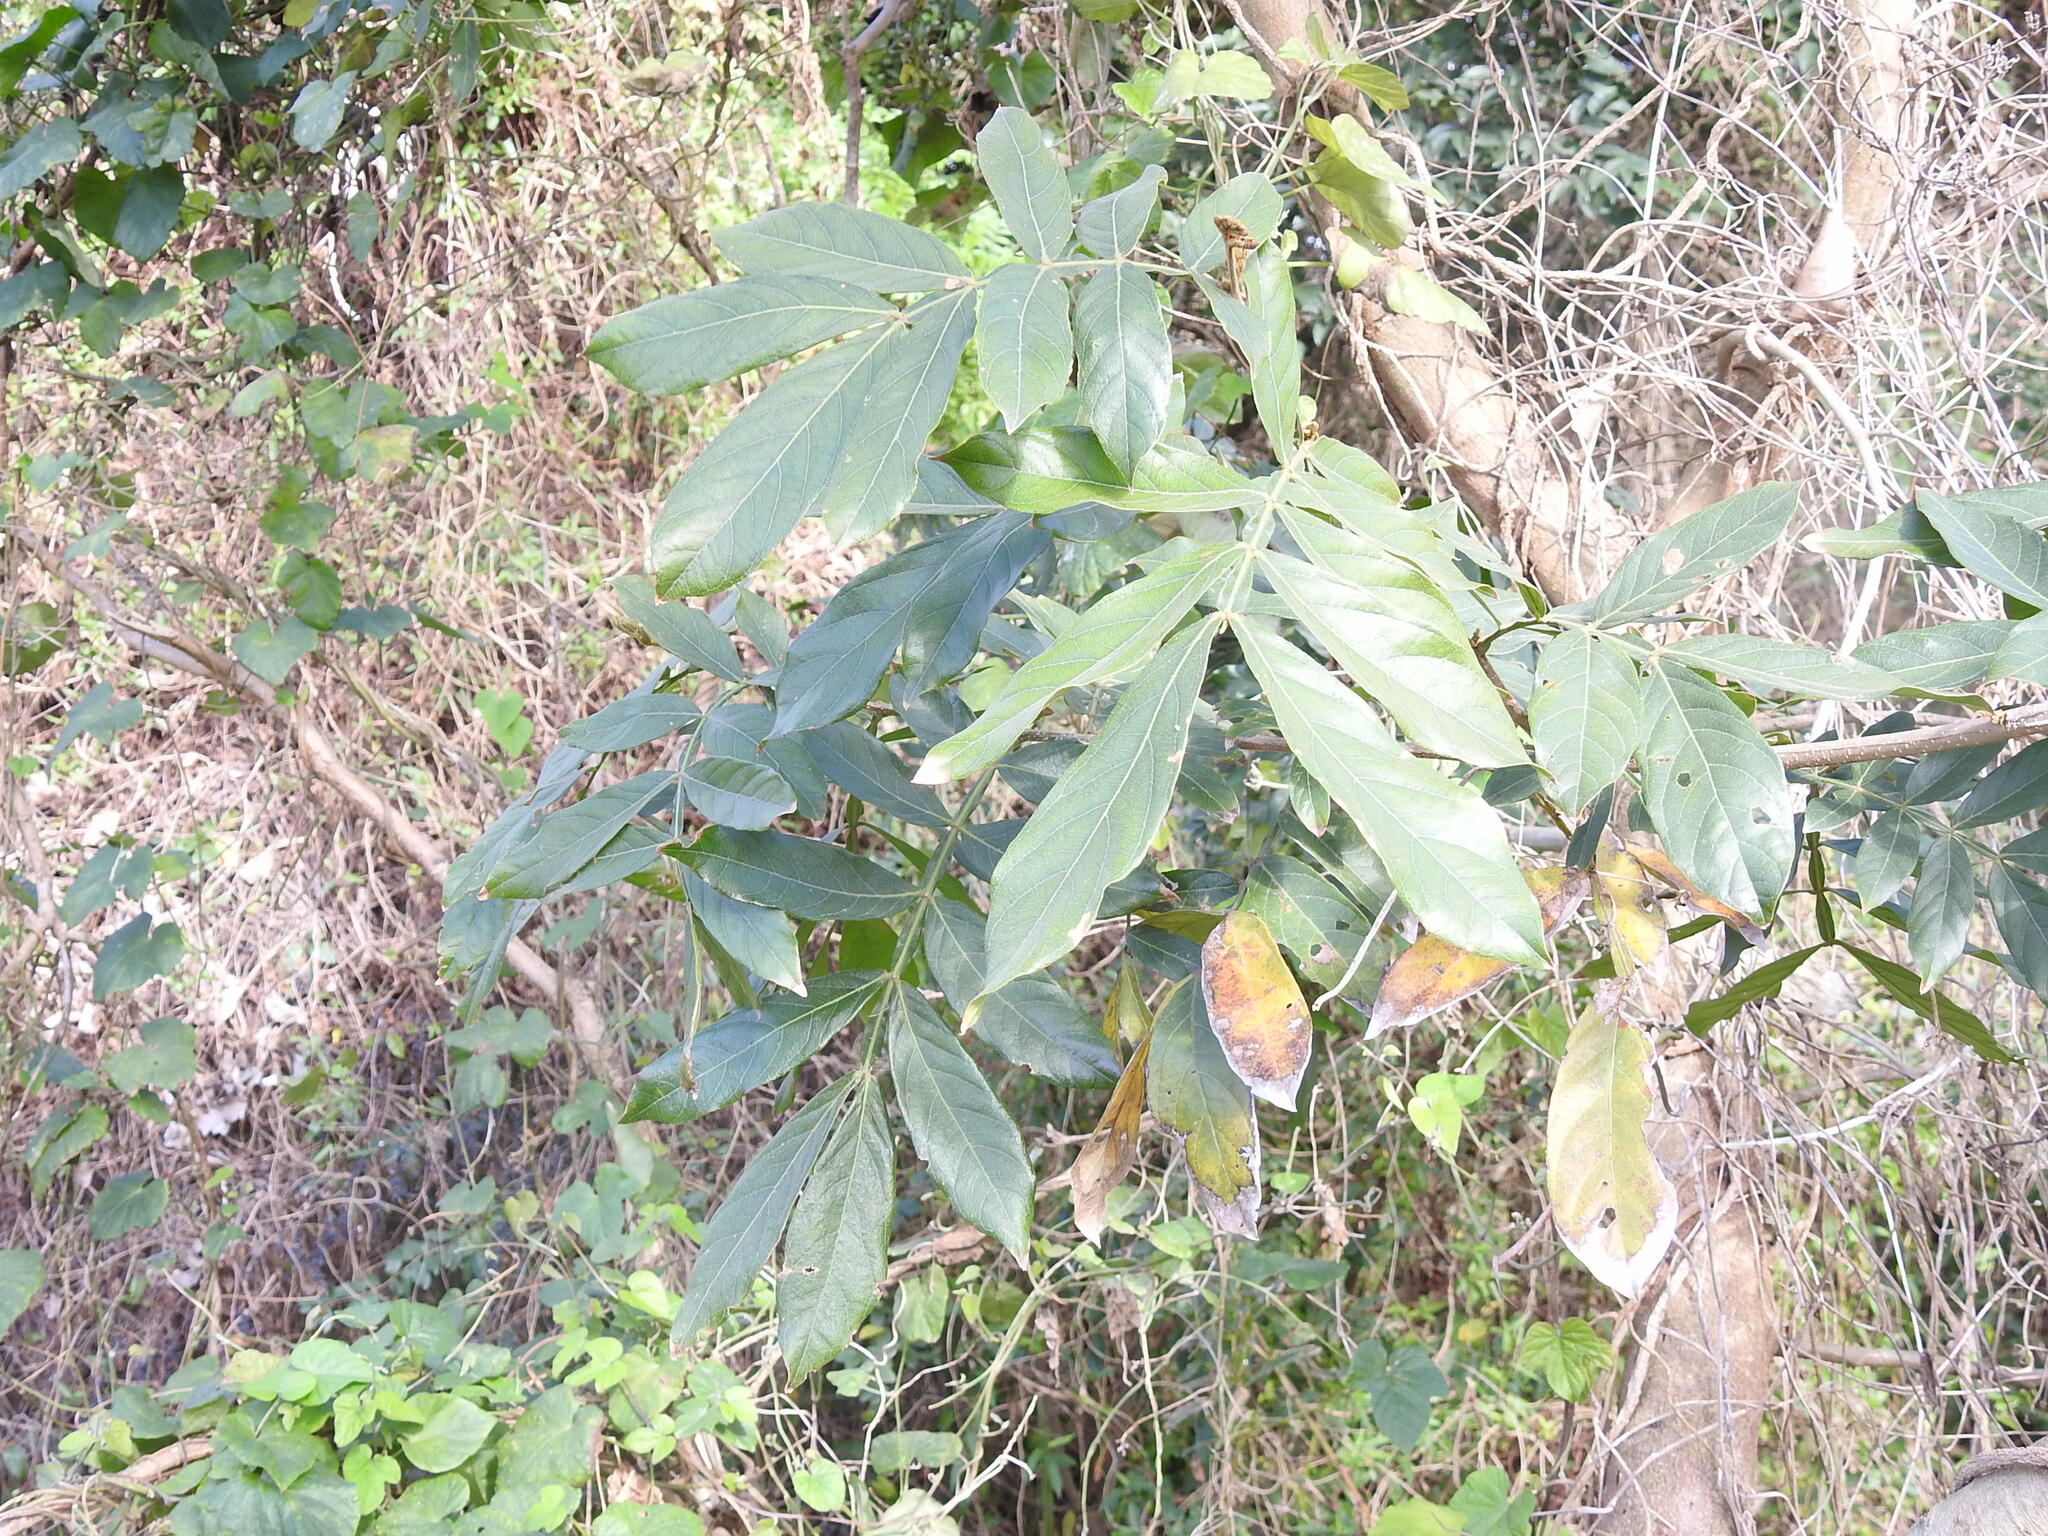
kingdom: Plantae
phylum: Tracheophyta
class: Magnoliopsida
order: Fabales
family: Fabaceae
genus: Inga
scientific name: Inga uraguensis
